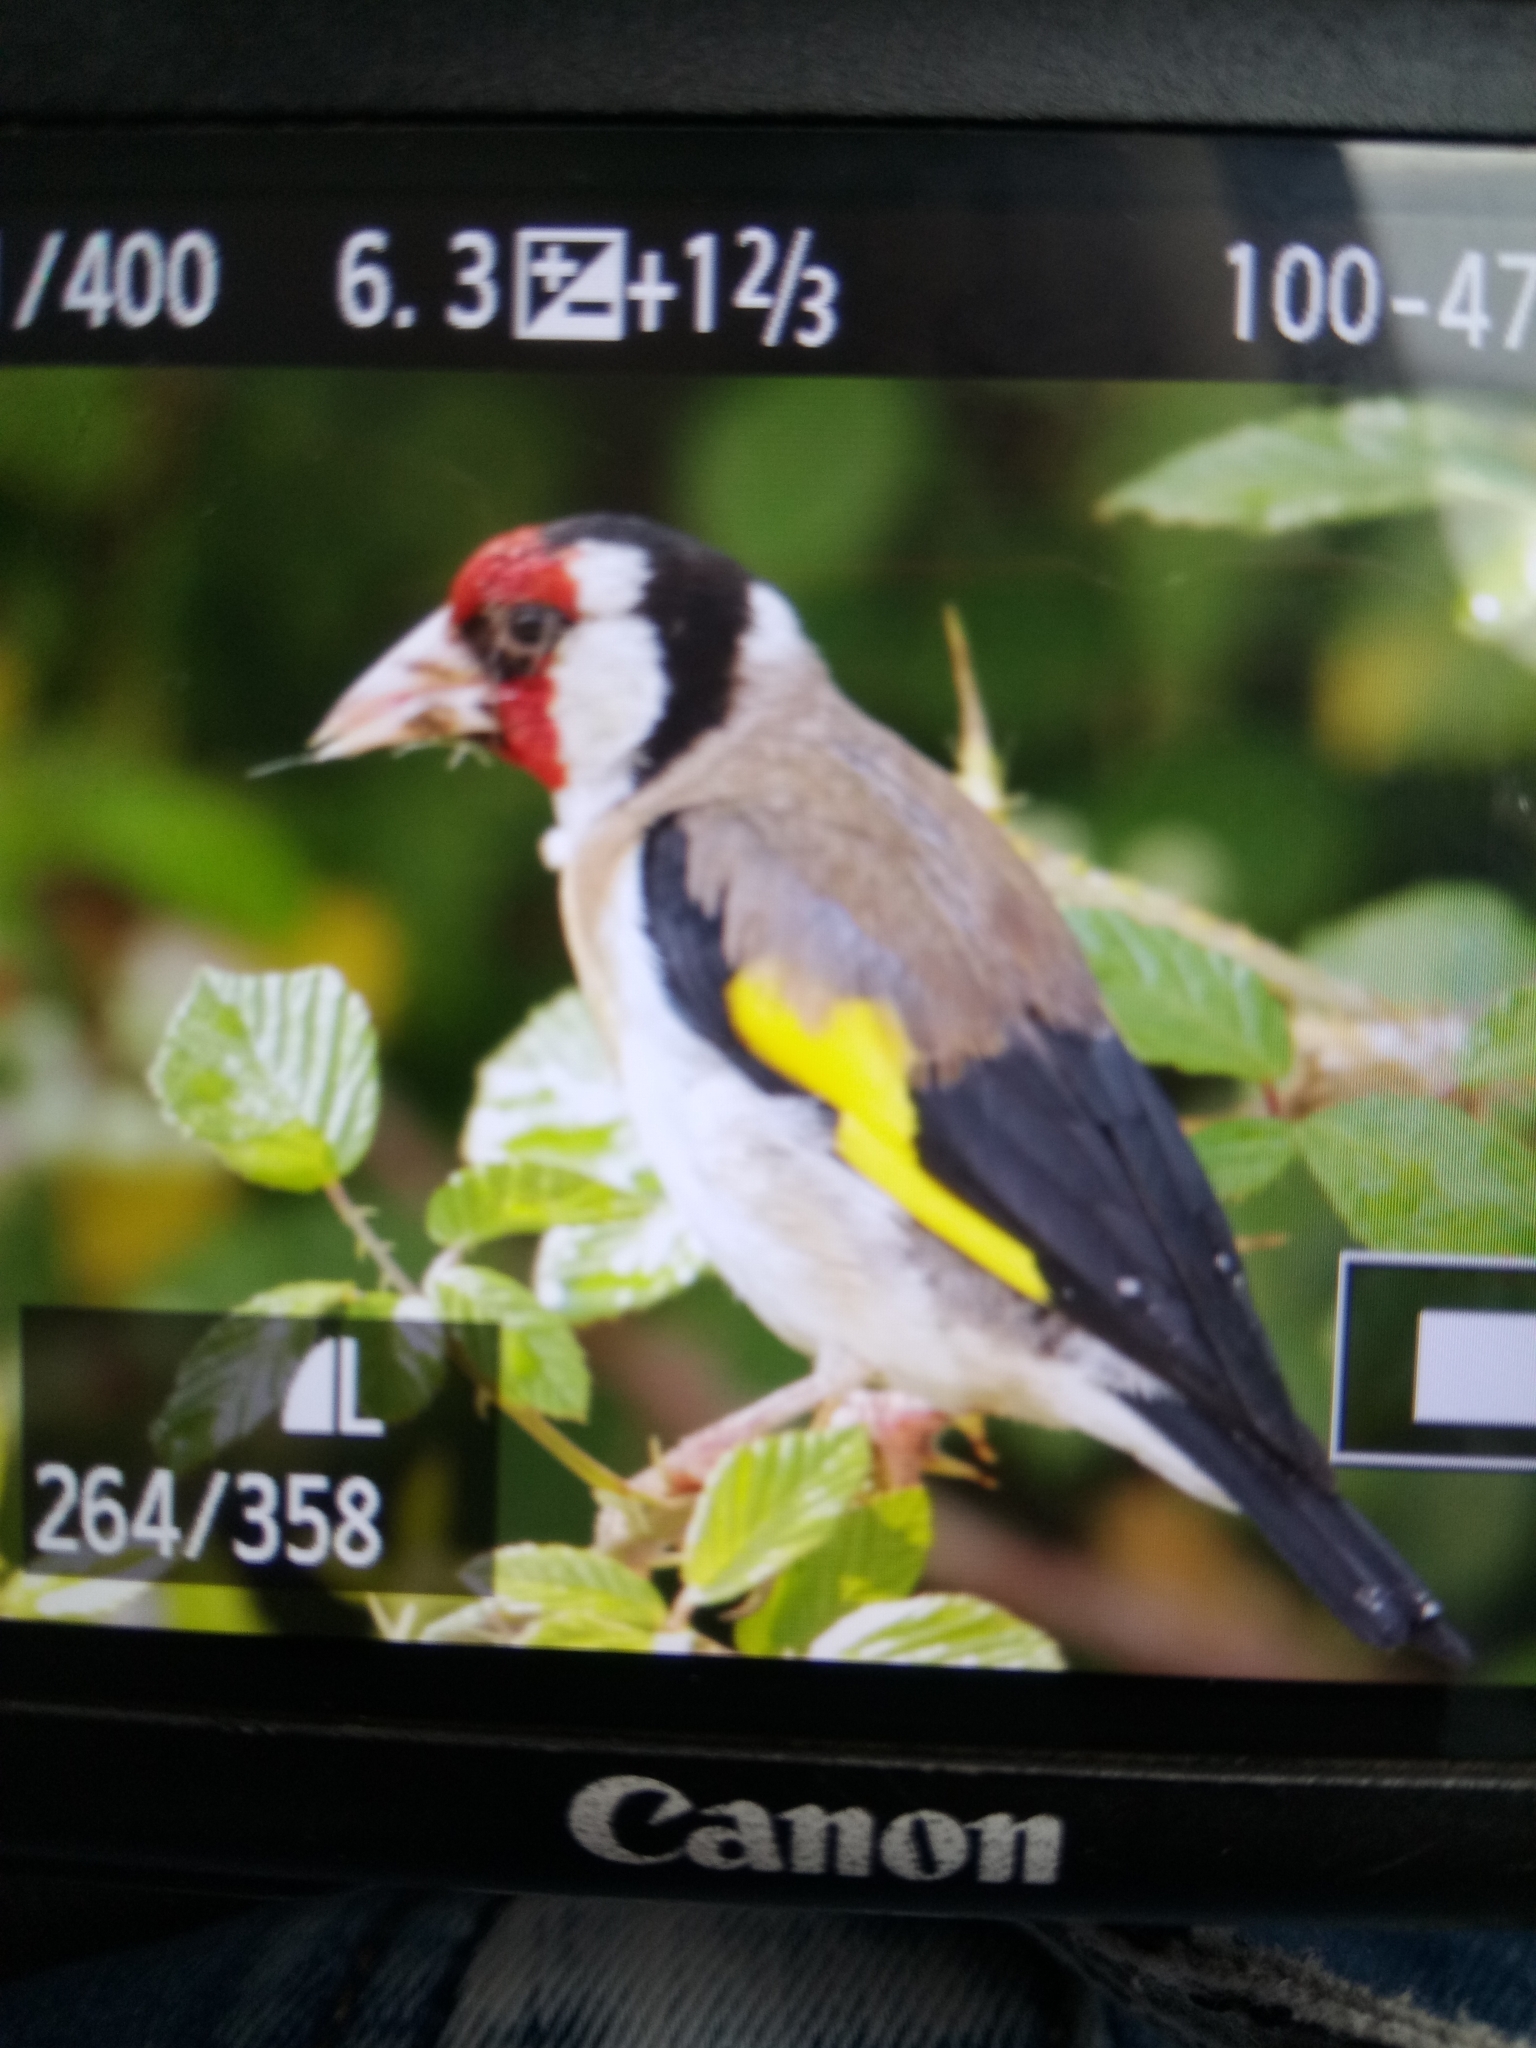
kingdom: Animalia
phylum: Chordata
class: Aves
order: Passeriformes
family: Fringillidae
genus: Carduelis
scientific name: Carduelis carduelis
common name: European goldfinch
